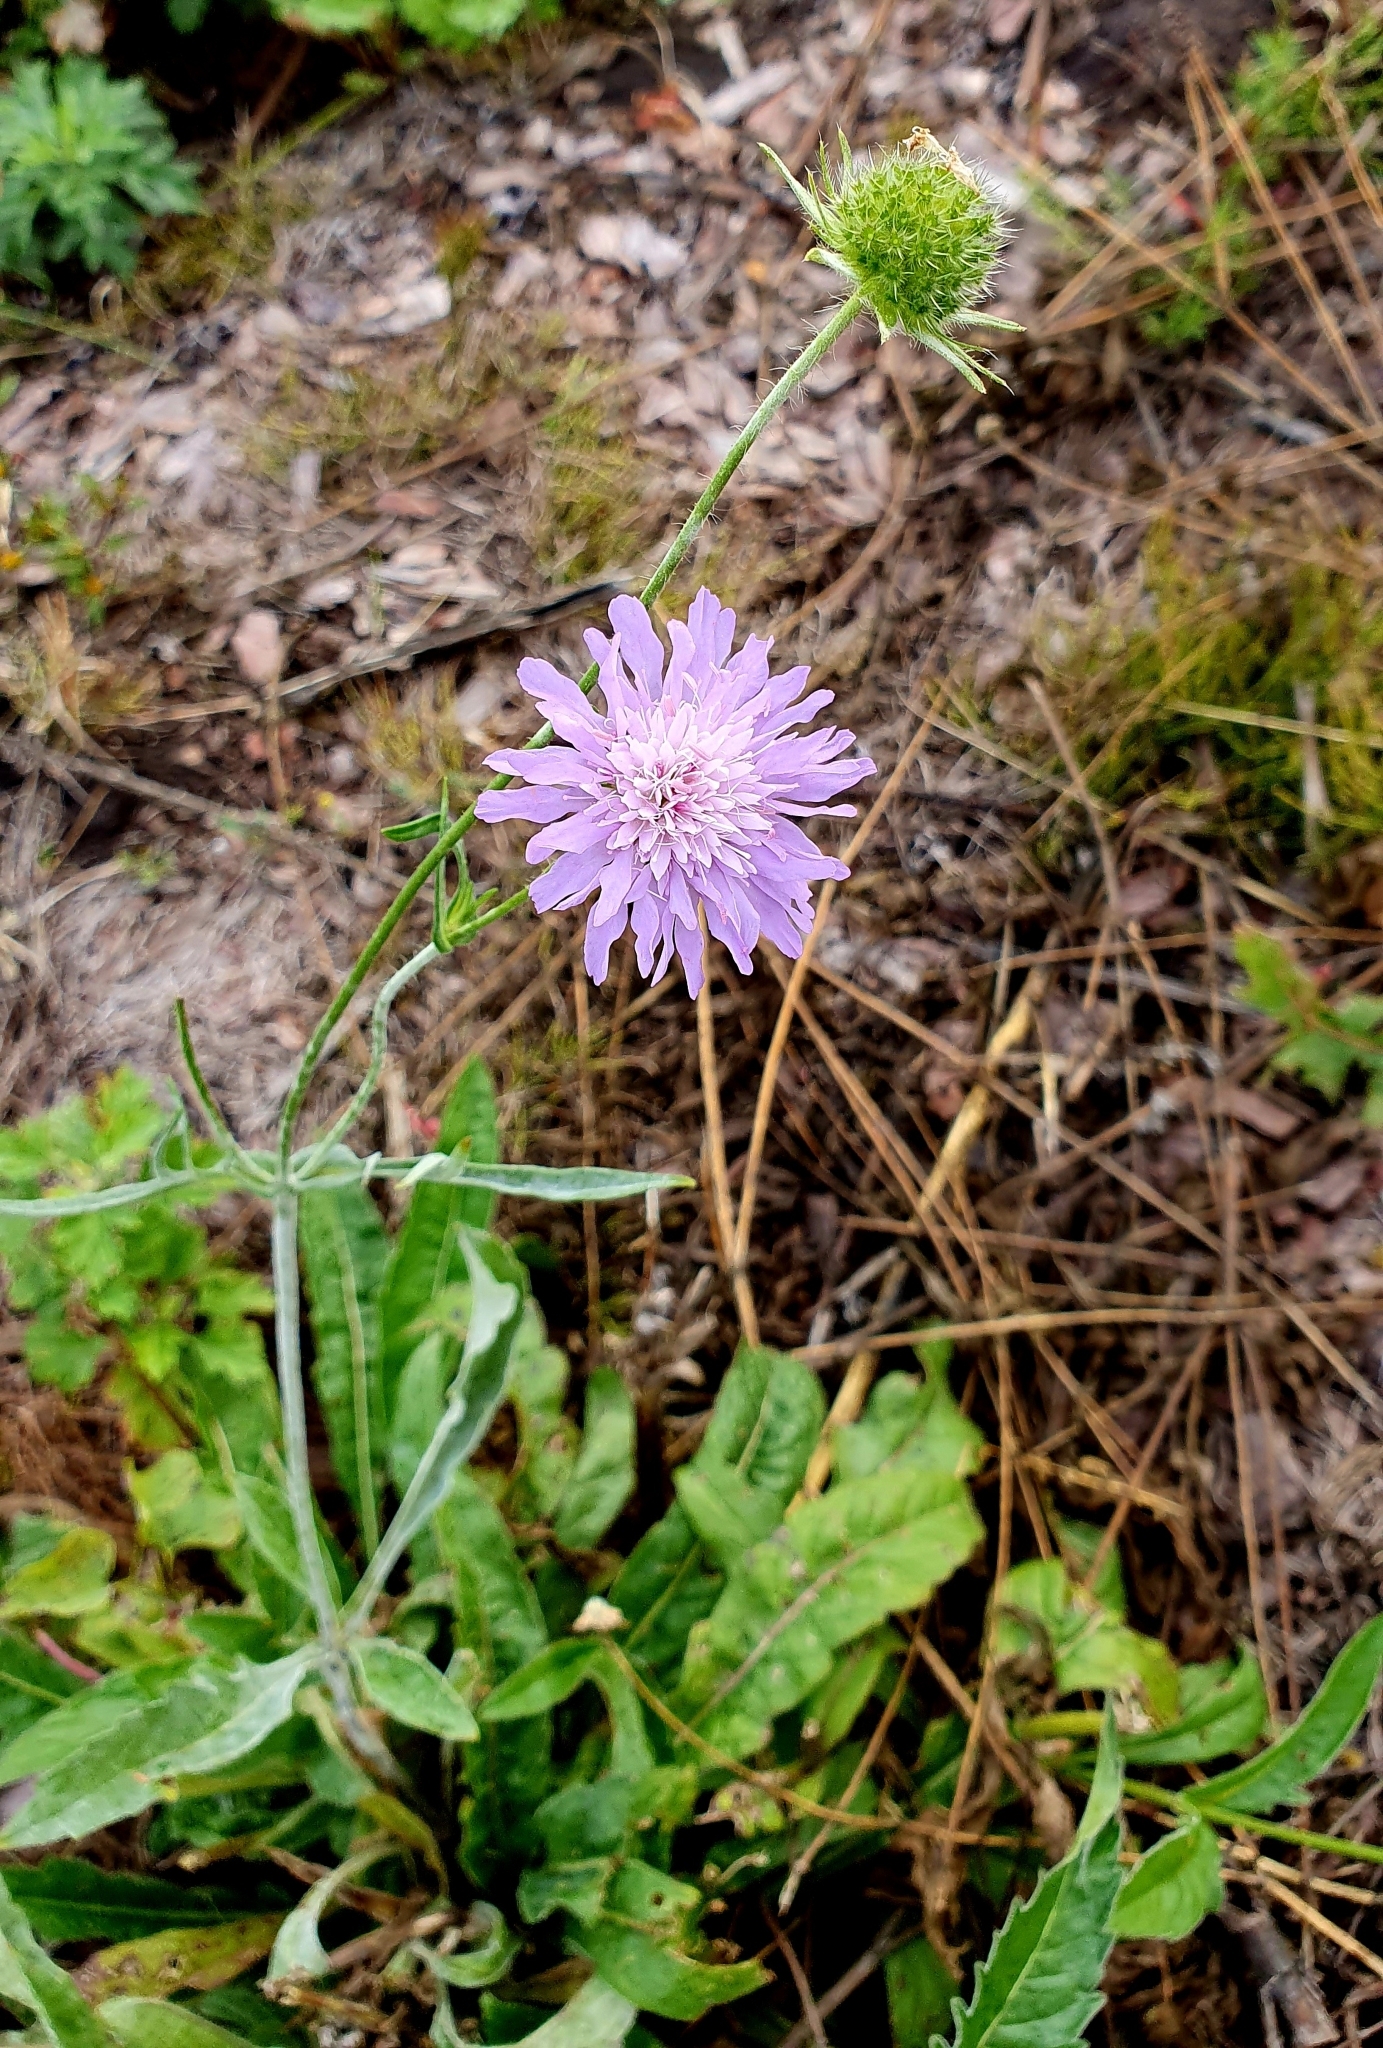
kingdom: Plantae
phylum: Tracheophyta
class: Magnoliopsida
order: Dipsacales
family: Caprifoliaceae
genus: Knautia
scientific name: Knautia arvensis
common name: Field scabiosa
